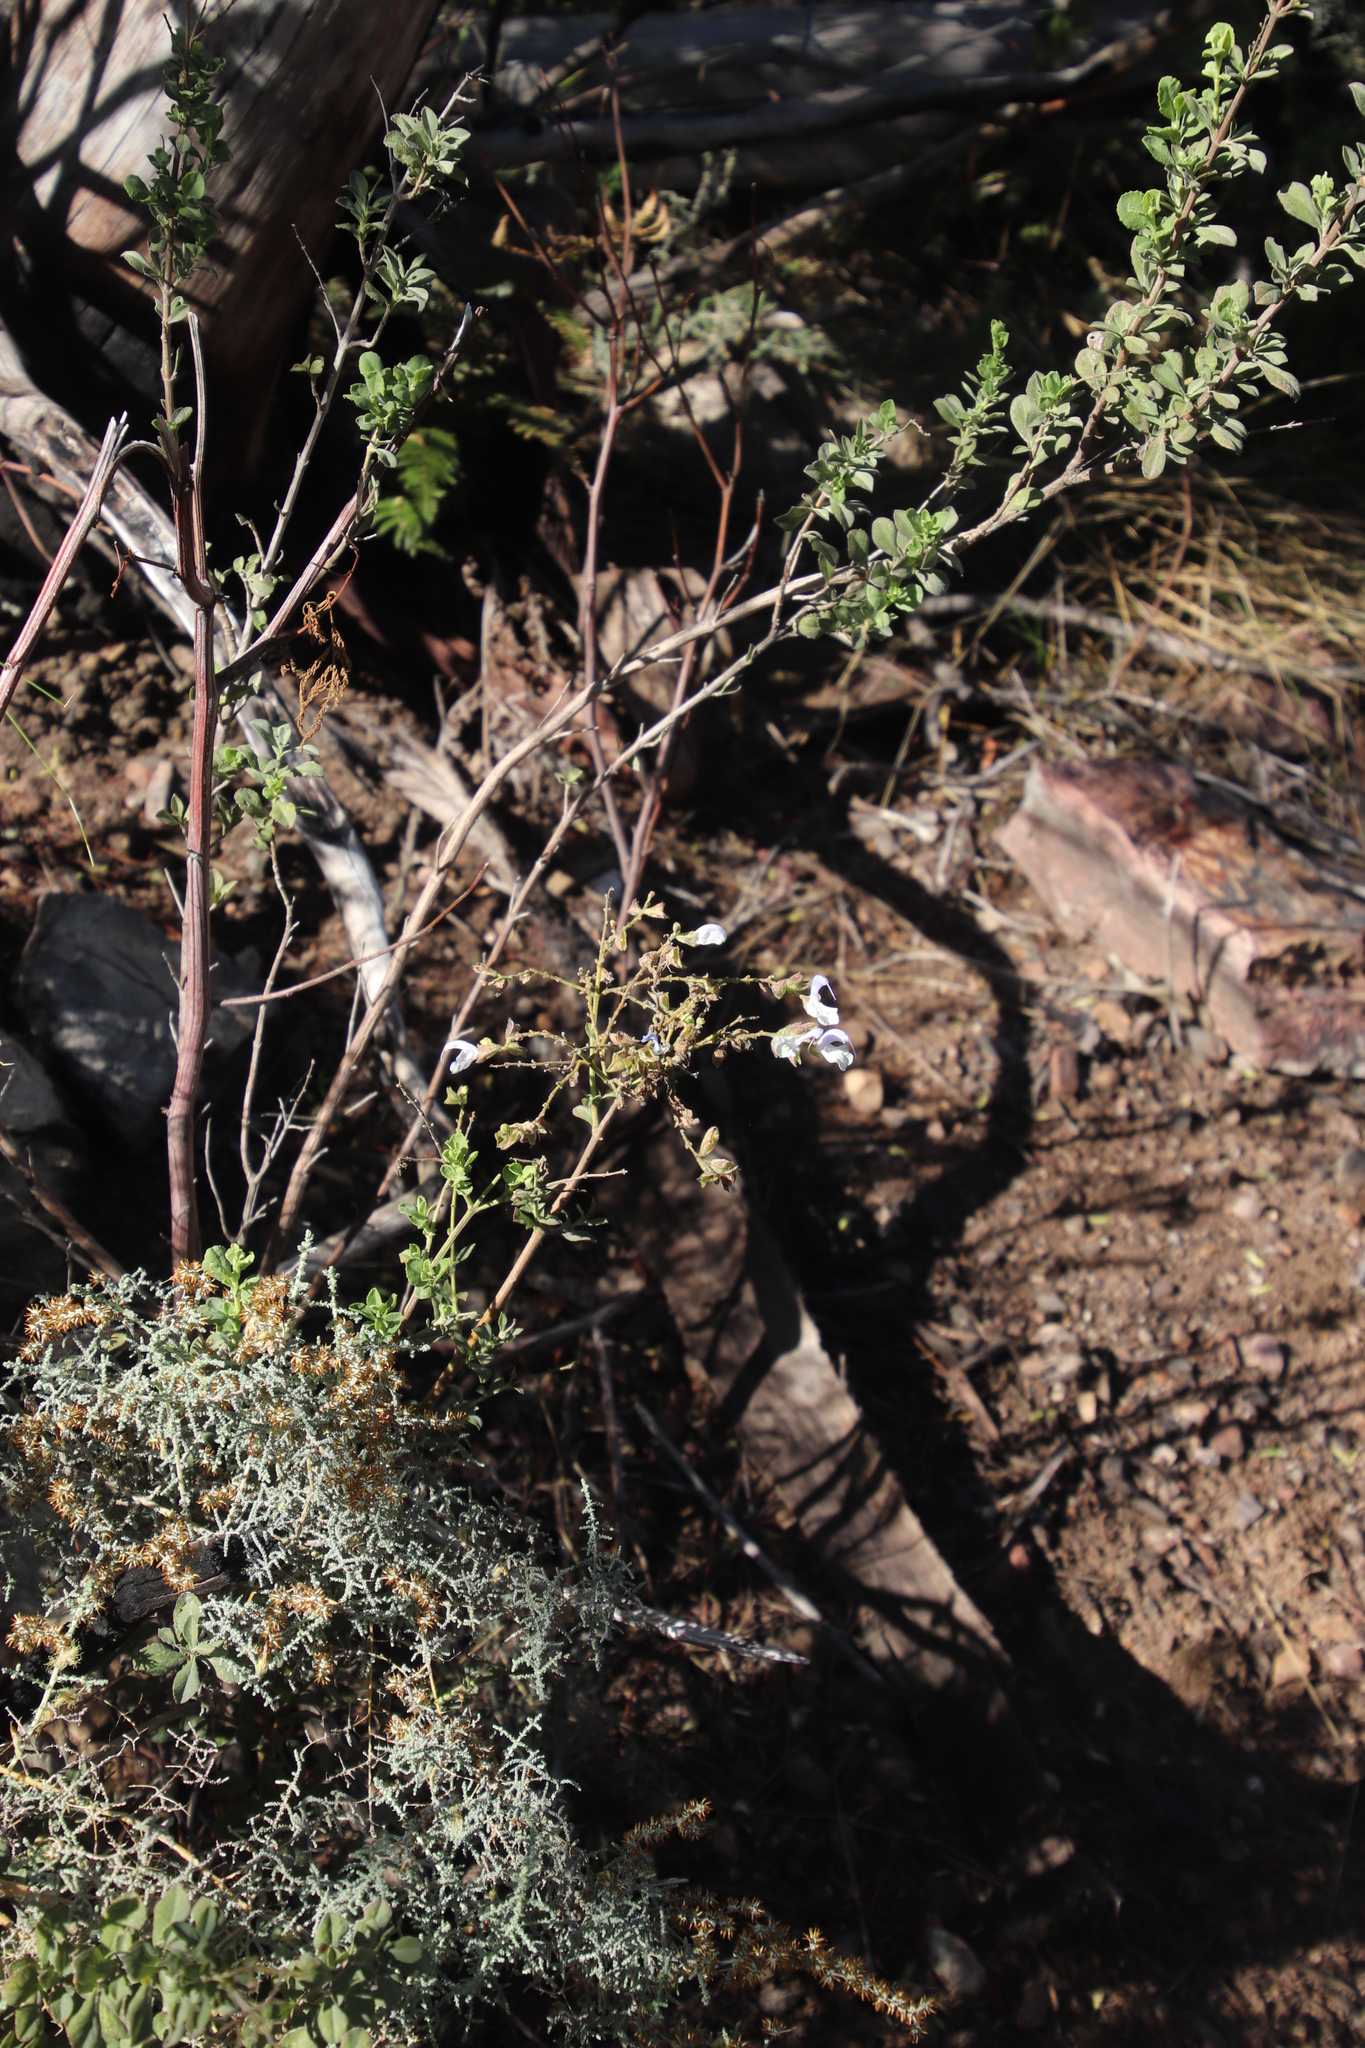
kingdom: Plantae
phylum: Tracheophyta
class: Magnoliopsida
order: Lamiales
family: Lamiaceae
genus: Salvia
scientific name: Salvia africana
